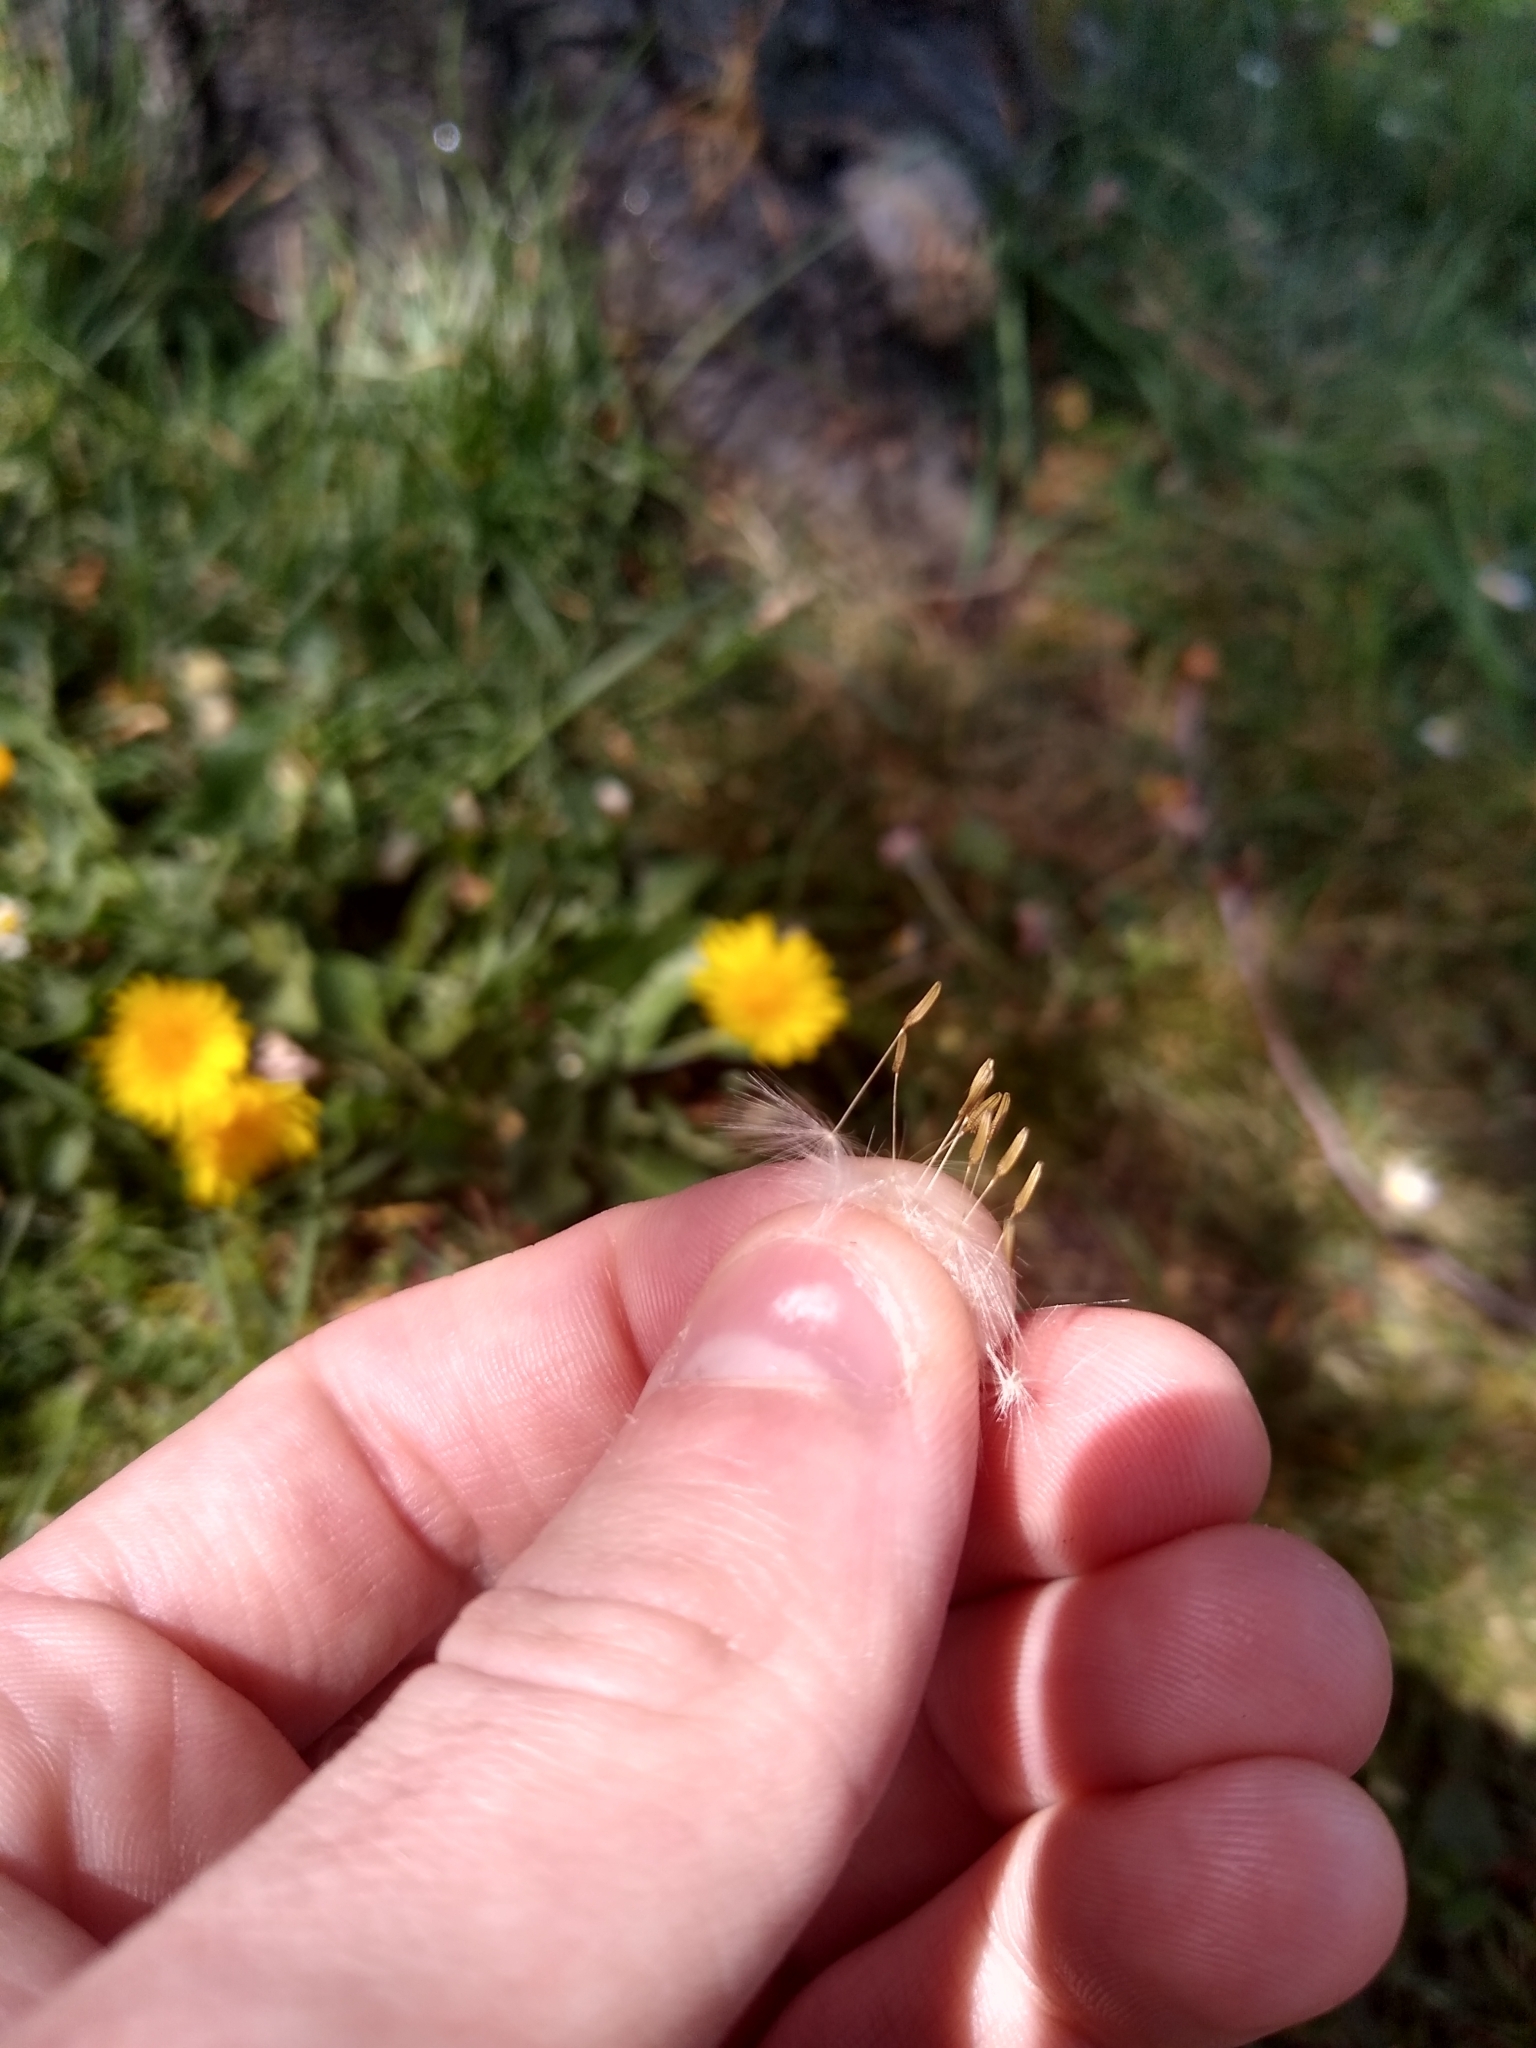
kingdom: Plantae
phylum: Tracheophyta
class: Magnoliopsida
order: Asterales
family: Asteraceae
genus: Taraxacum
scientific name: Taraxacum officinale
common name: Common dandelion
